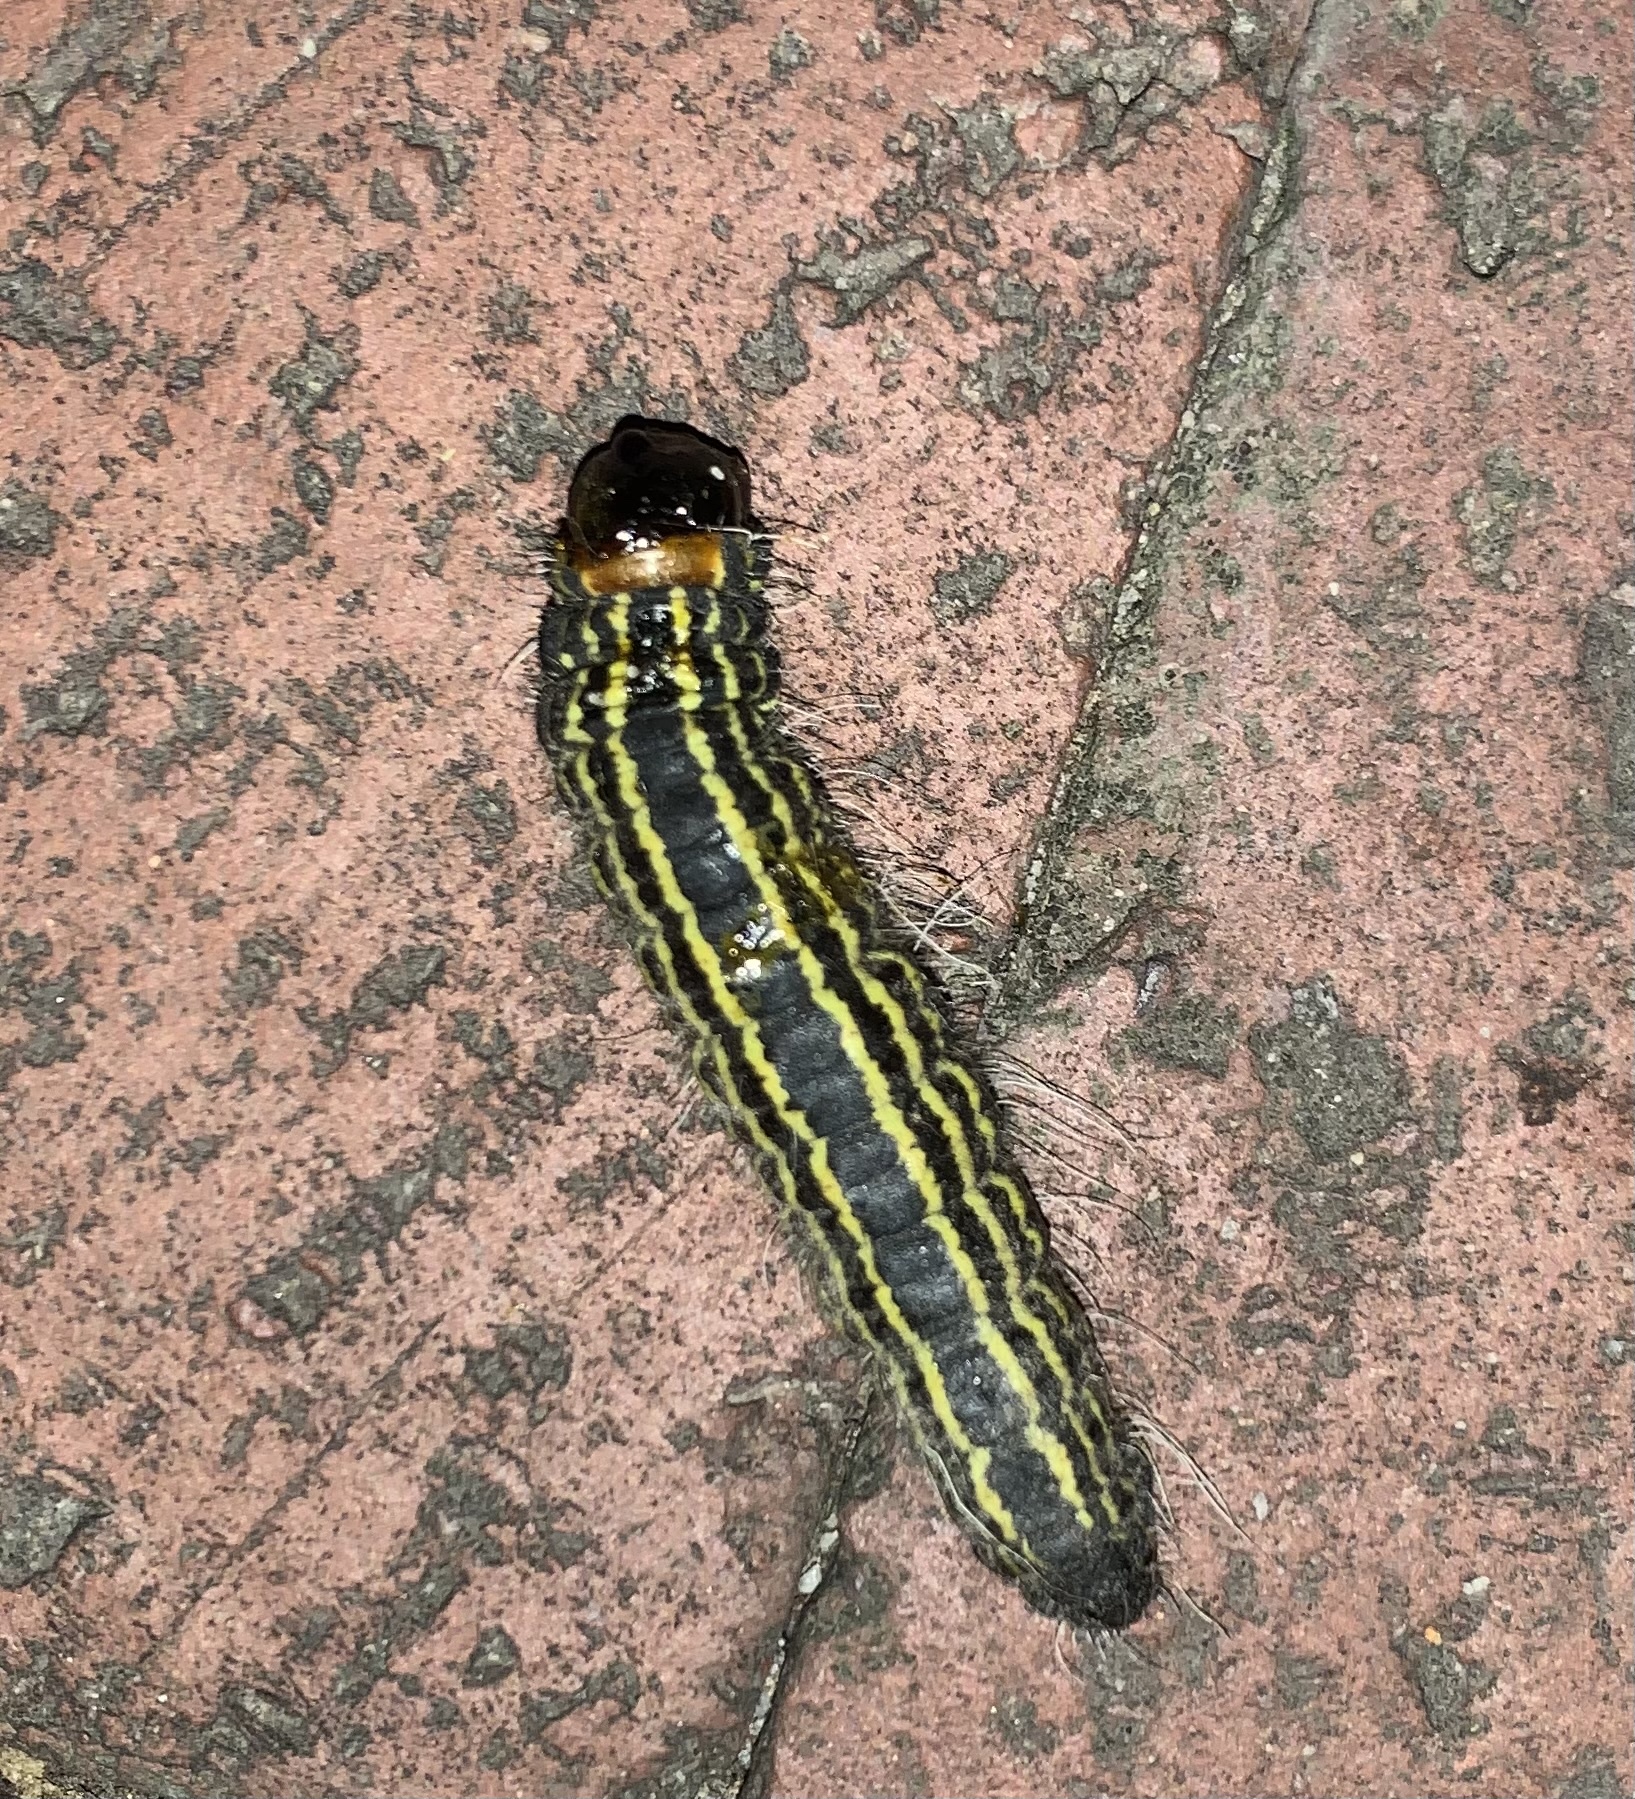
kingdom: Animalia
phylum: Arthropoda
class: Insecta
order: Lepidoptera
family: Notodontidae
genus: Datana
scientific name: Datana ministra
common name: Yellow-necked caterpillar moth
